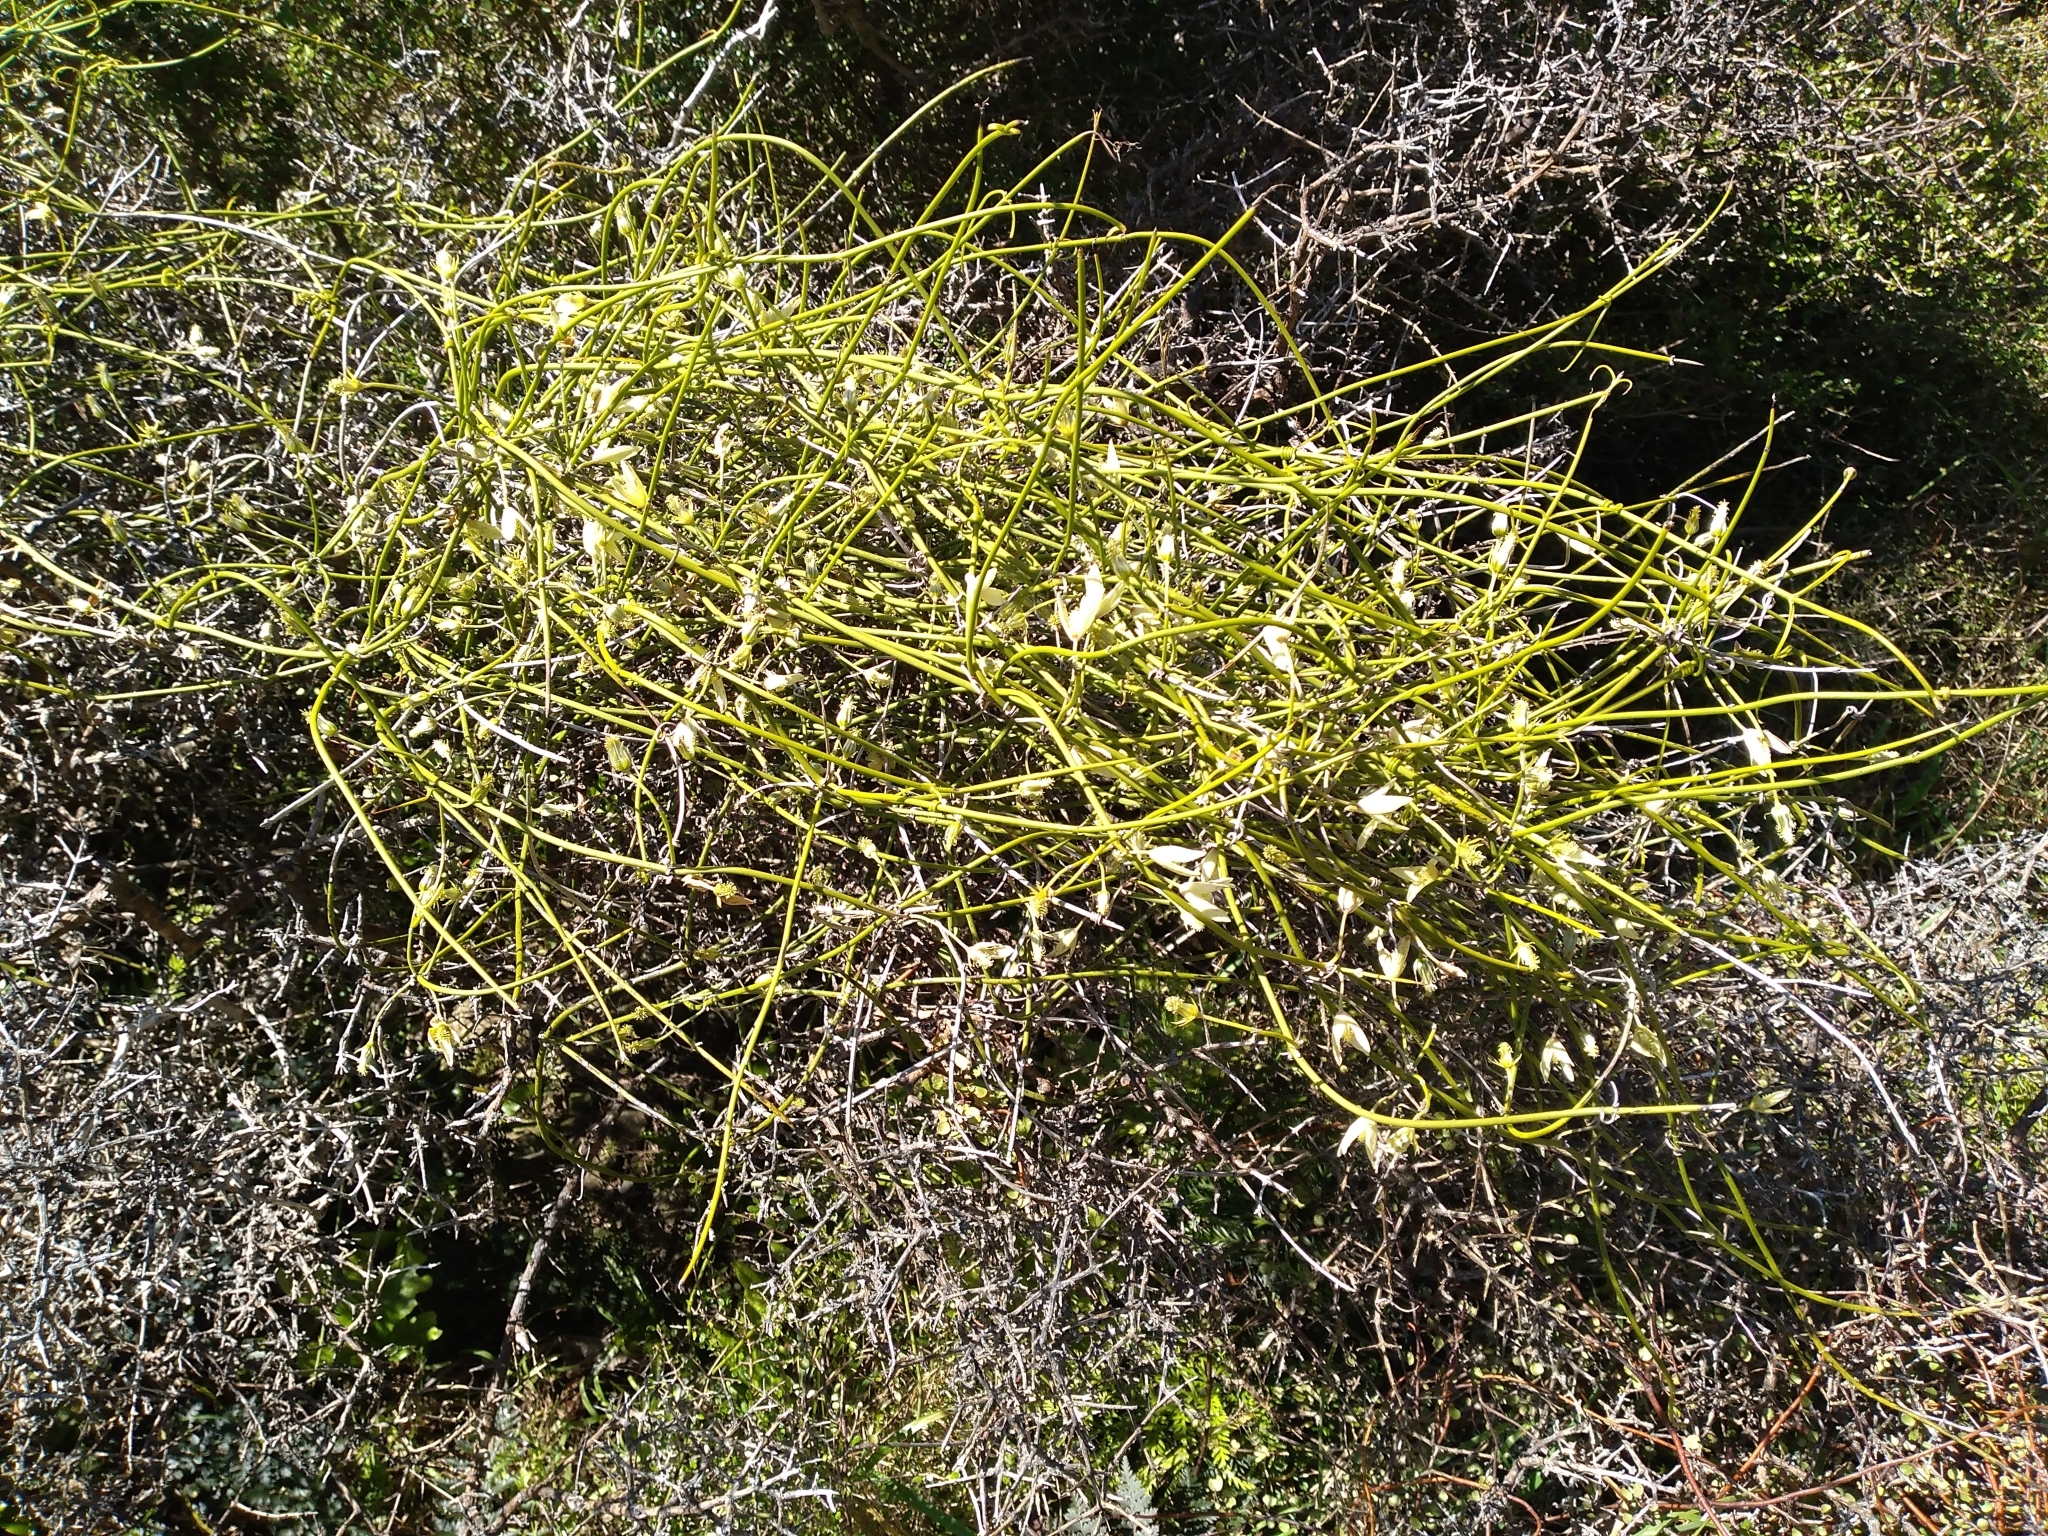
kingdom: Plantae
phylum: Tracheophyta
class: Magnoliopsida
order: Ranunculales
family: Ranunculaceae
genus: Clematis
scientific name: Clematis afoliata
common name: Rush-stem clematis
